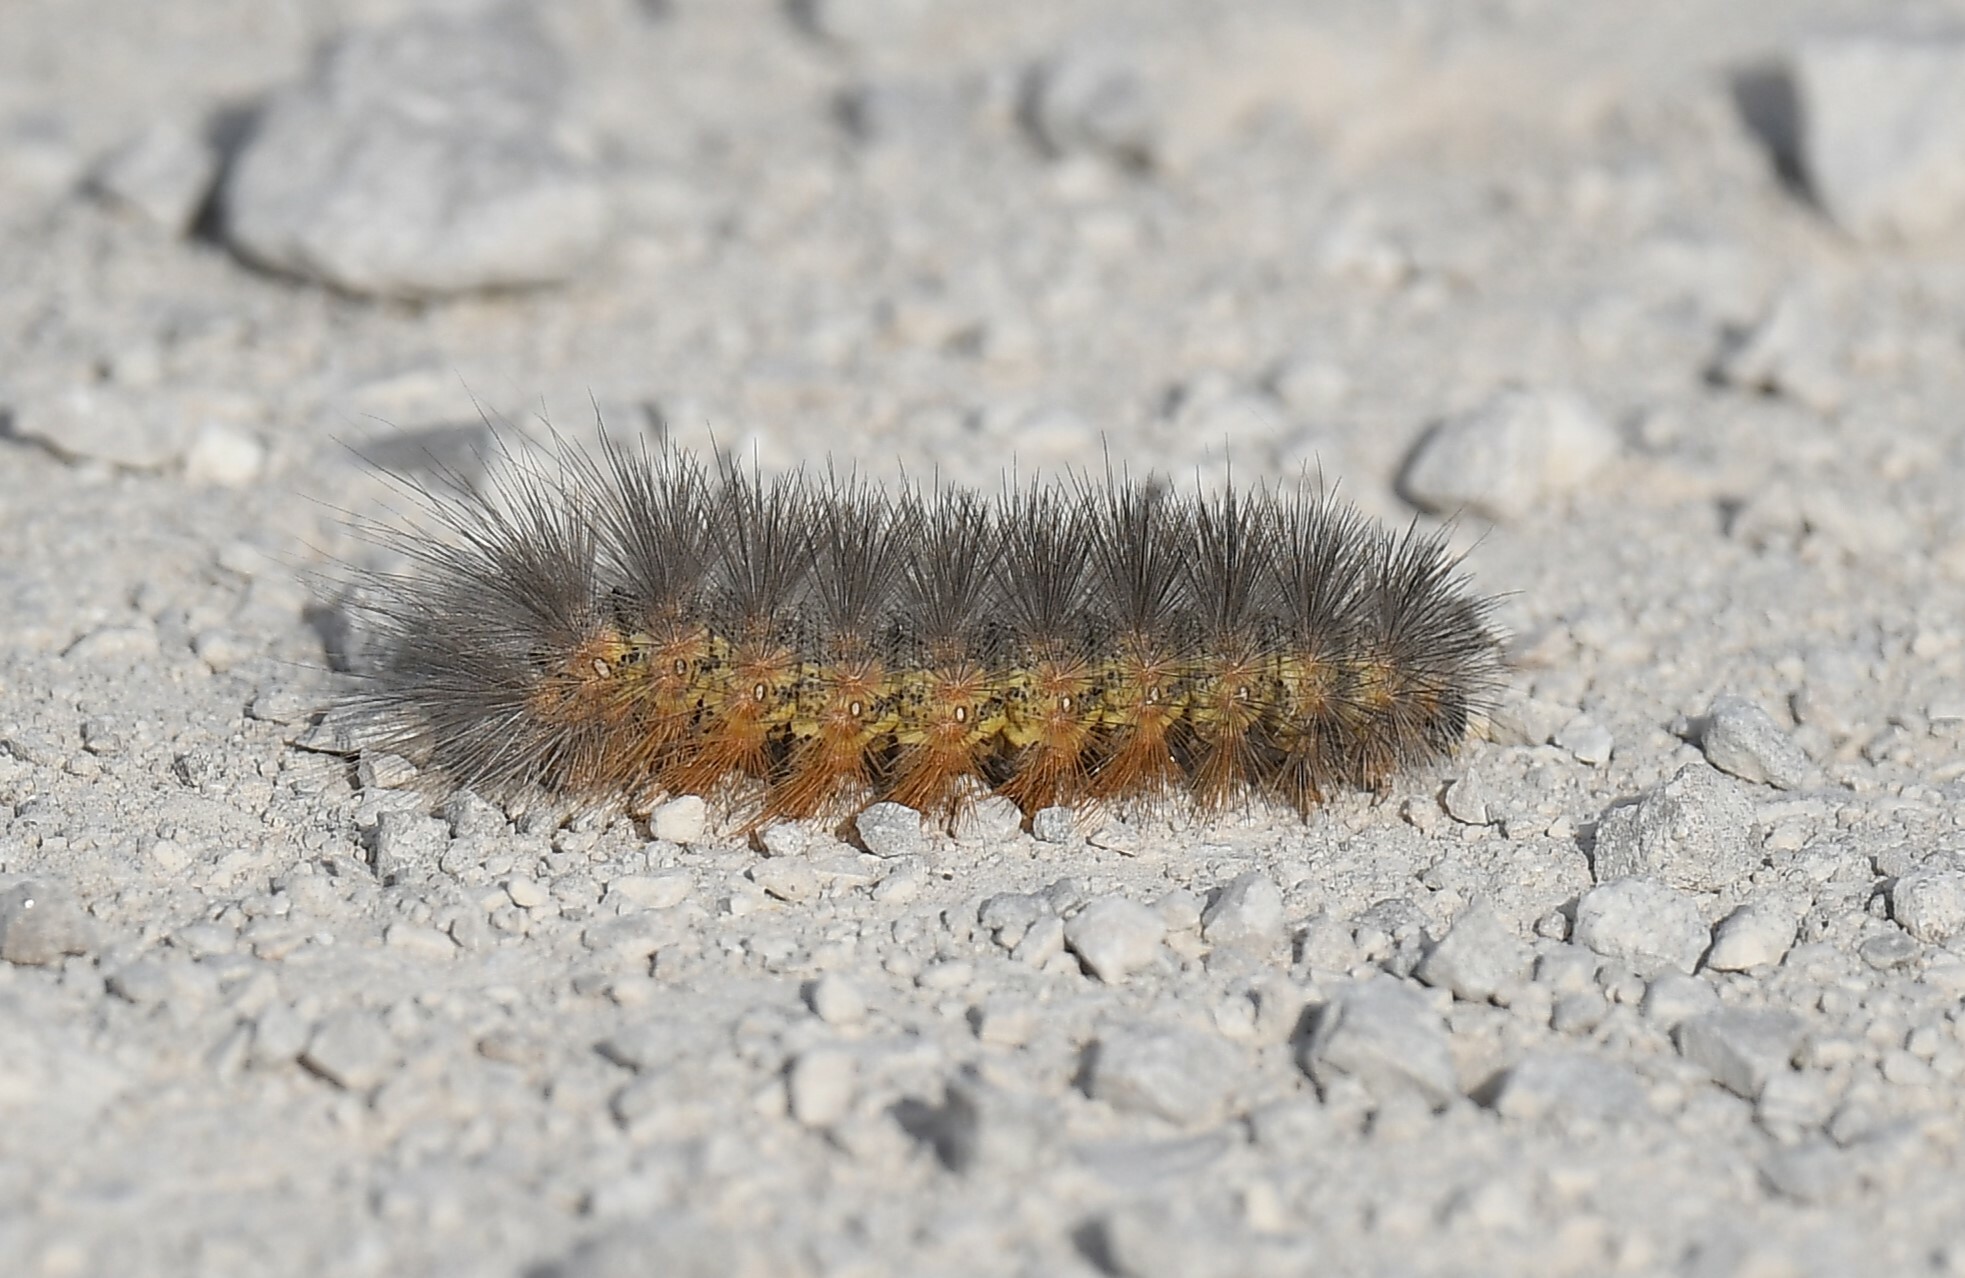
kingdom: Animalia
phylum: Arthropoda
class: Insecta
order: Lepidoptera
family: Erebidae
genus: Estigmene
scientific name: Estigmene acrea
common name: Salt marsh moth
